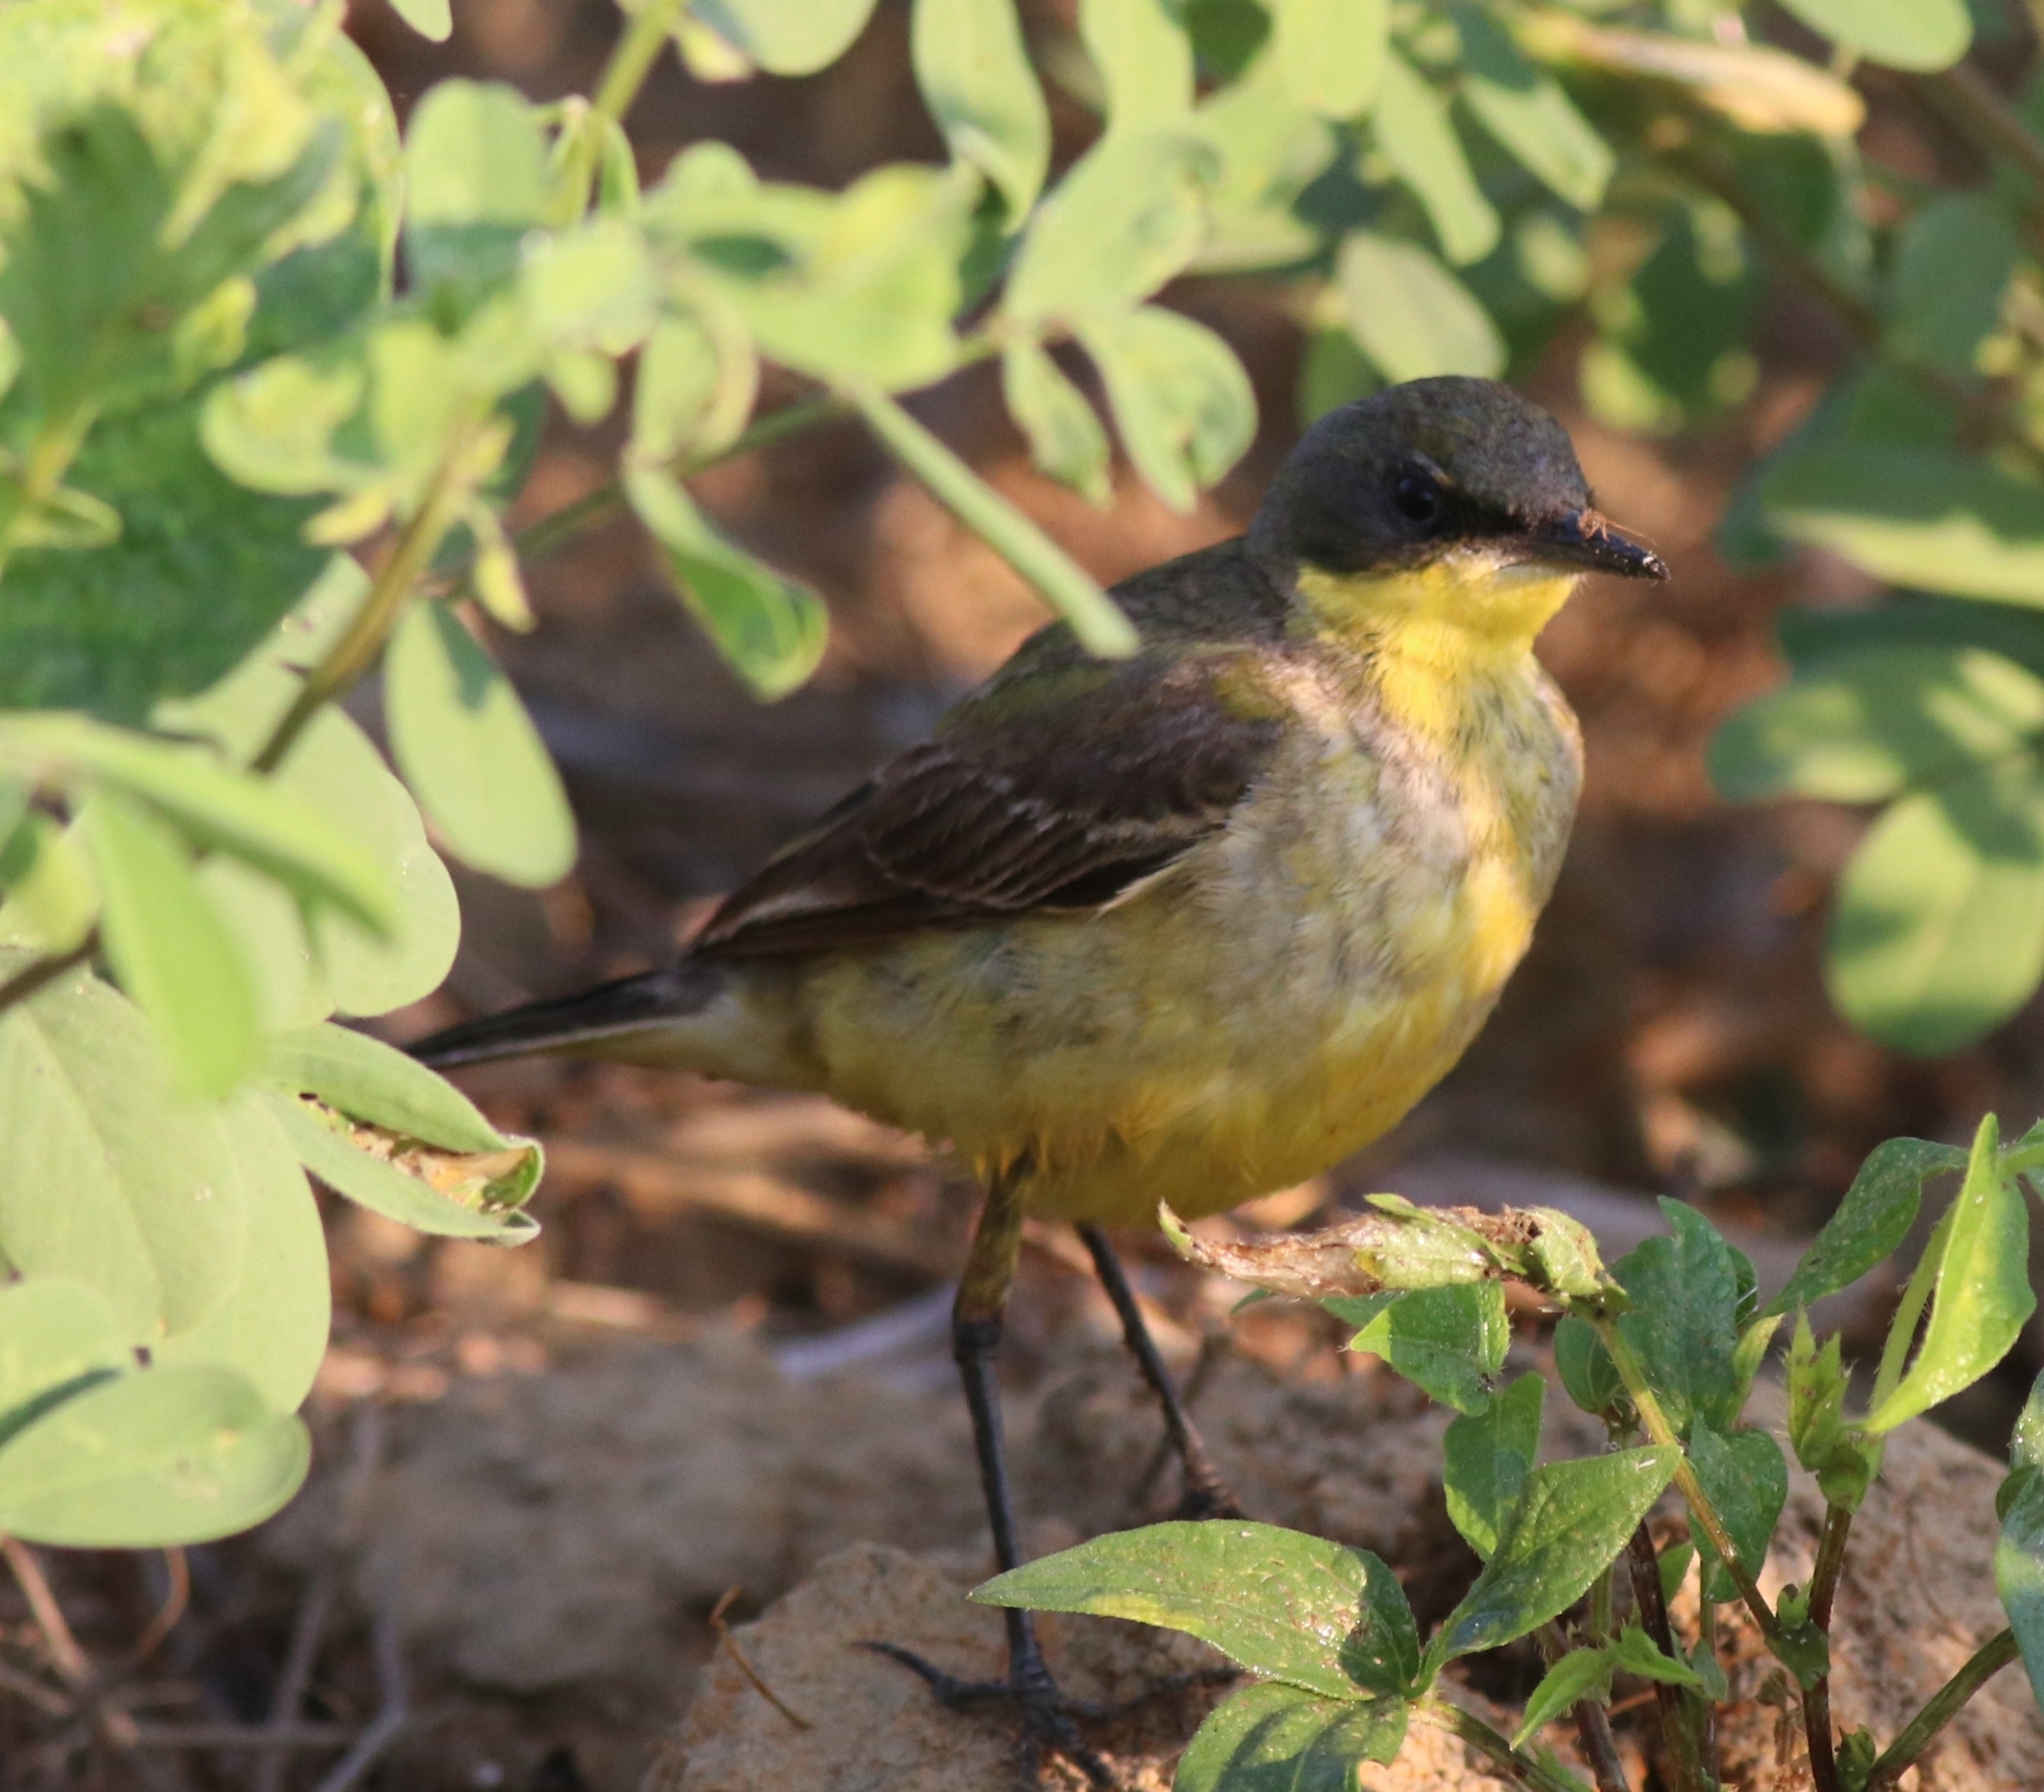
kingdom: Animalia
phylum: Chordata
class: Aves
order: Passeriformes
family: Motacillidae
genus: Motacilla
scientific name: Motacilla flava
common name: Western yellow wagtail
